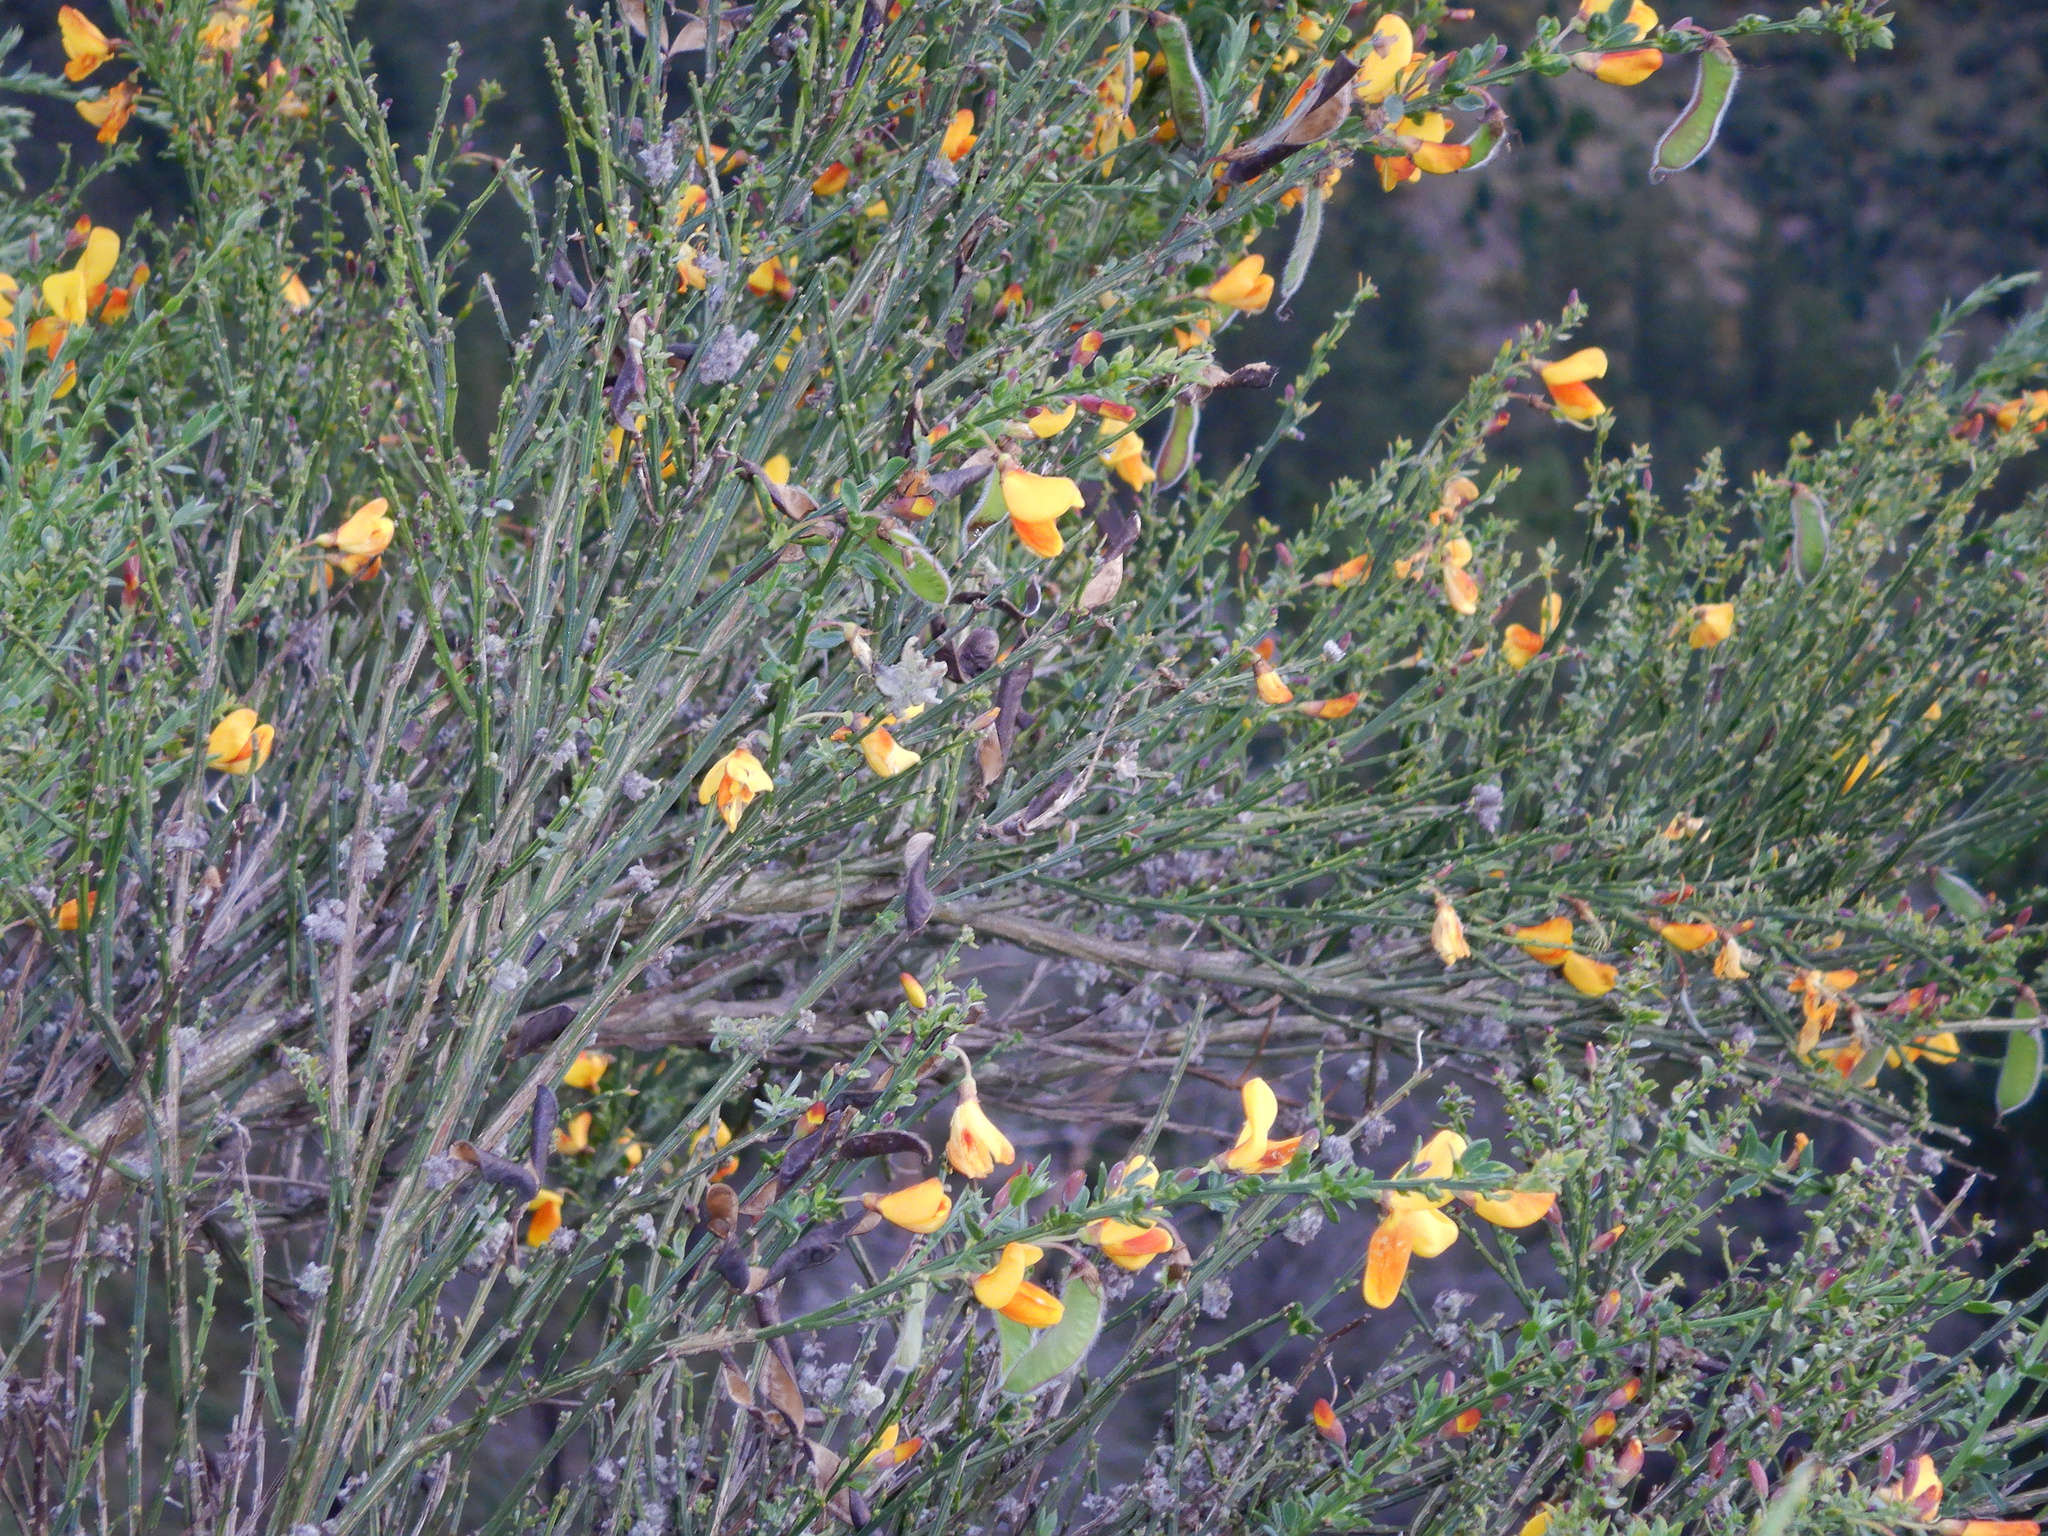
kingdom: Plantae
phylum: Tracheophyta
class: Magnoliopsida
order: Fabales
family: Fabaceae
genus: Cytisus
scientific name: Cytisus scoparius
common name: Scotch broom
